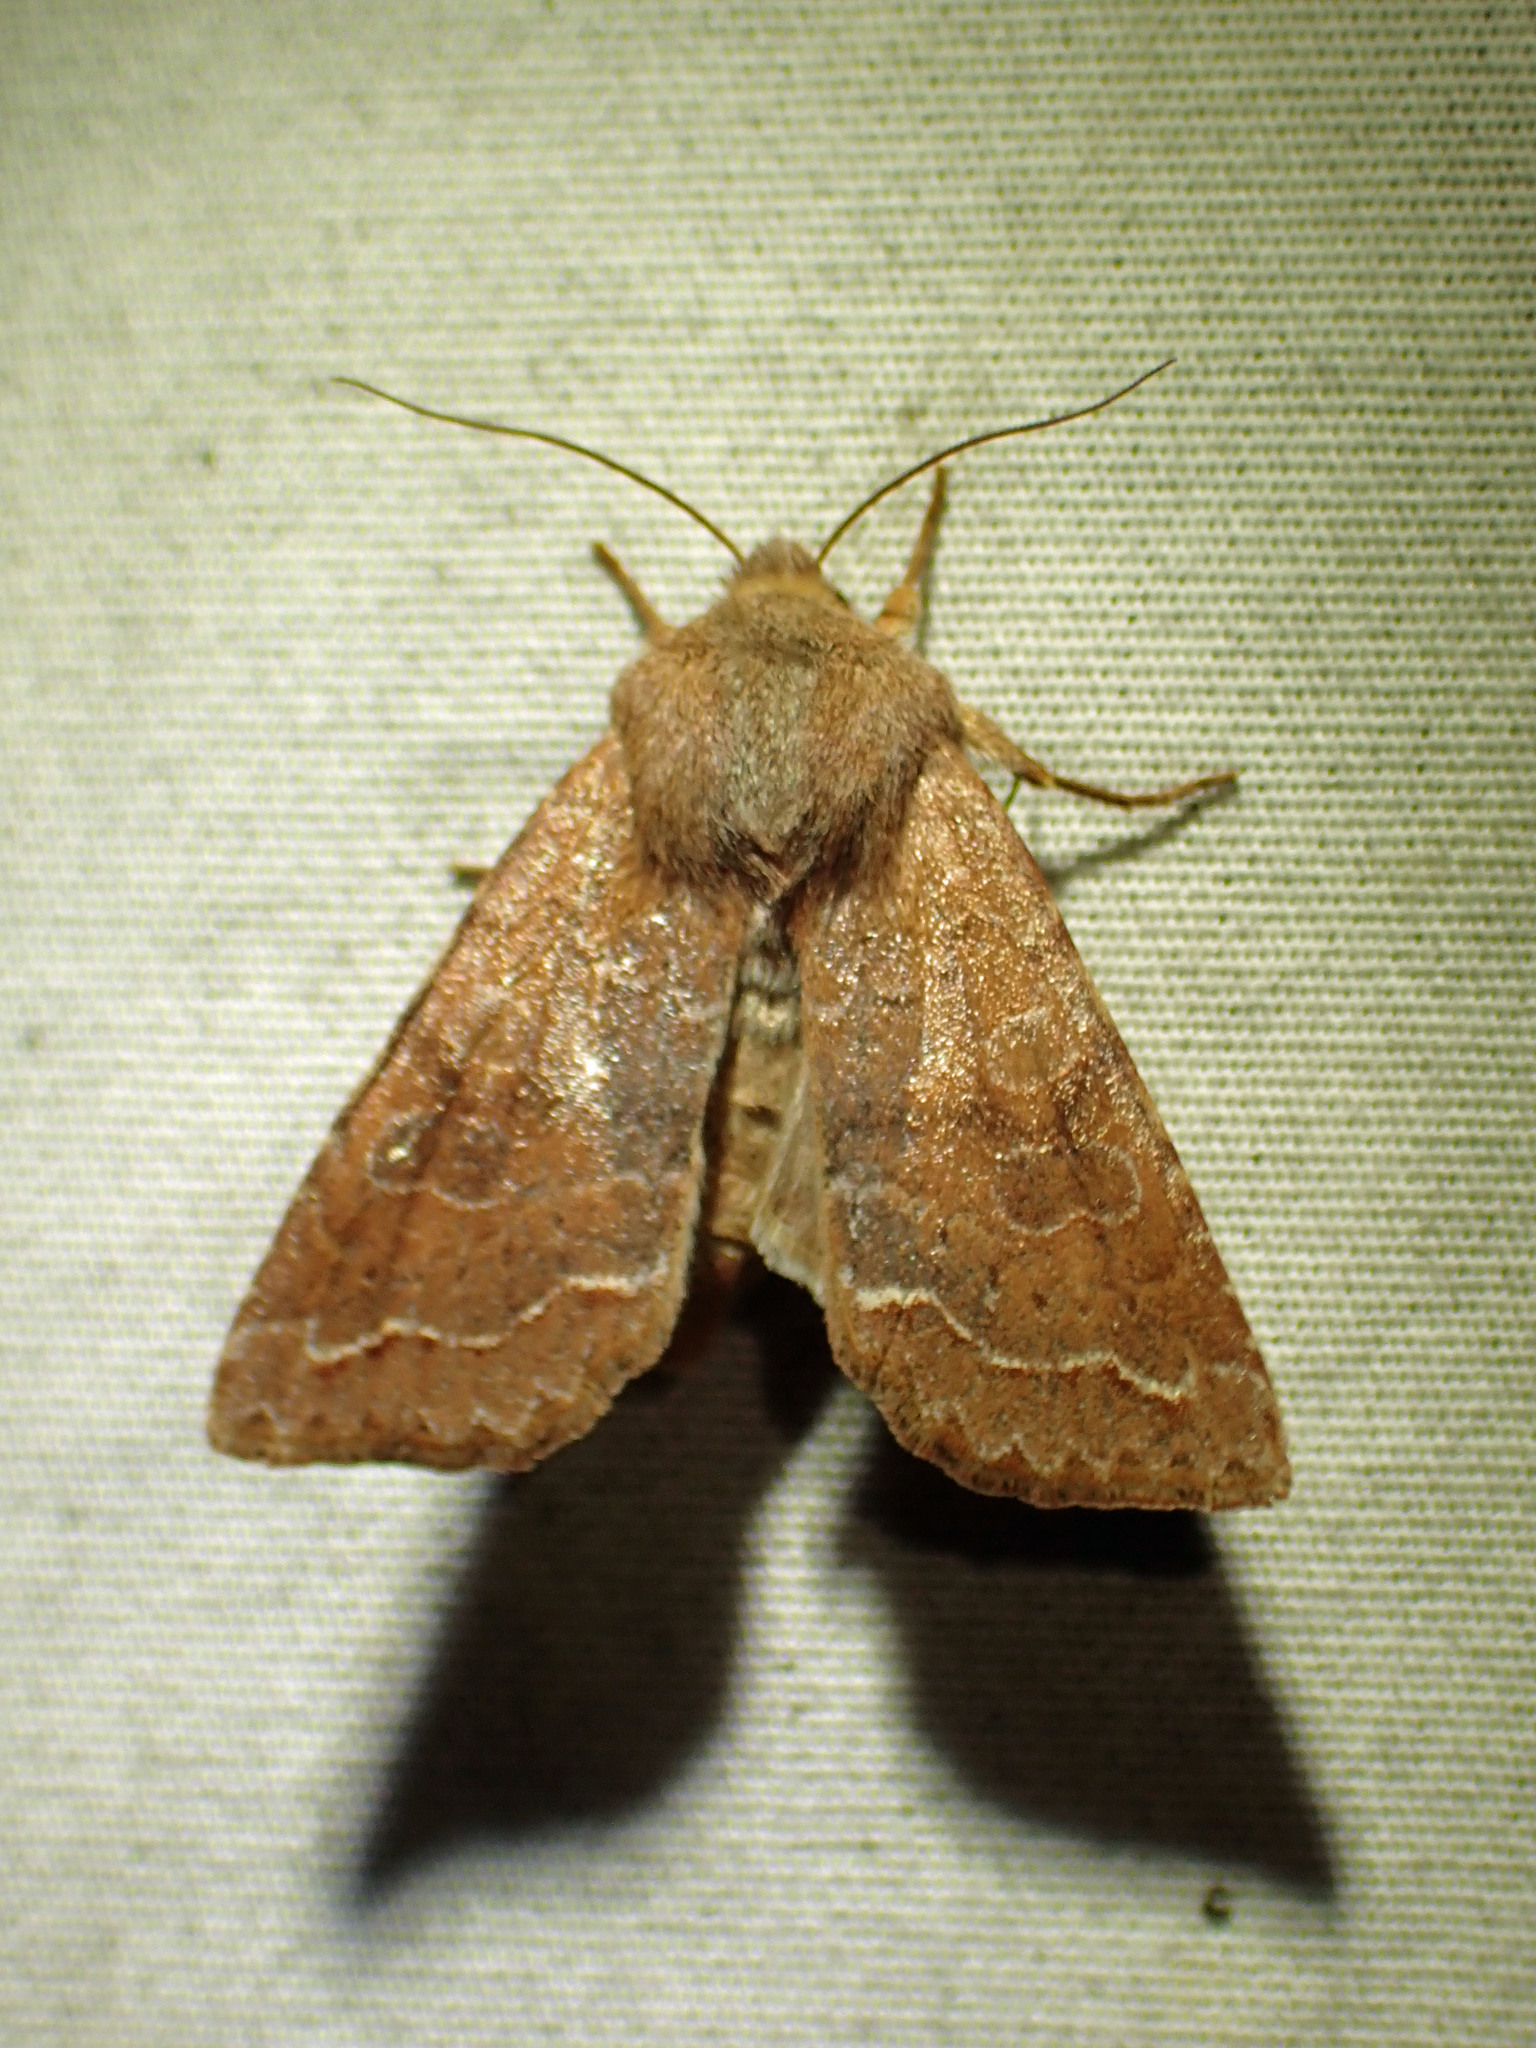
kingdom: Animalia
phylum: Arthropoda
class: Insecta
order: Lepidoptera
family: Noctuidae
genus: Orthosia
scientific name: Orthosia revicta
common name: Rusty whitesided caterpillar
